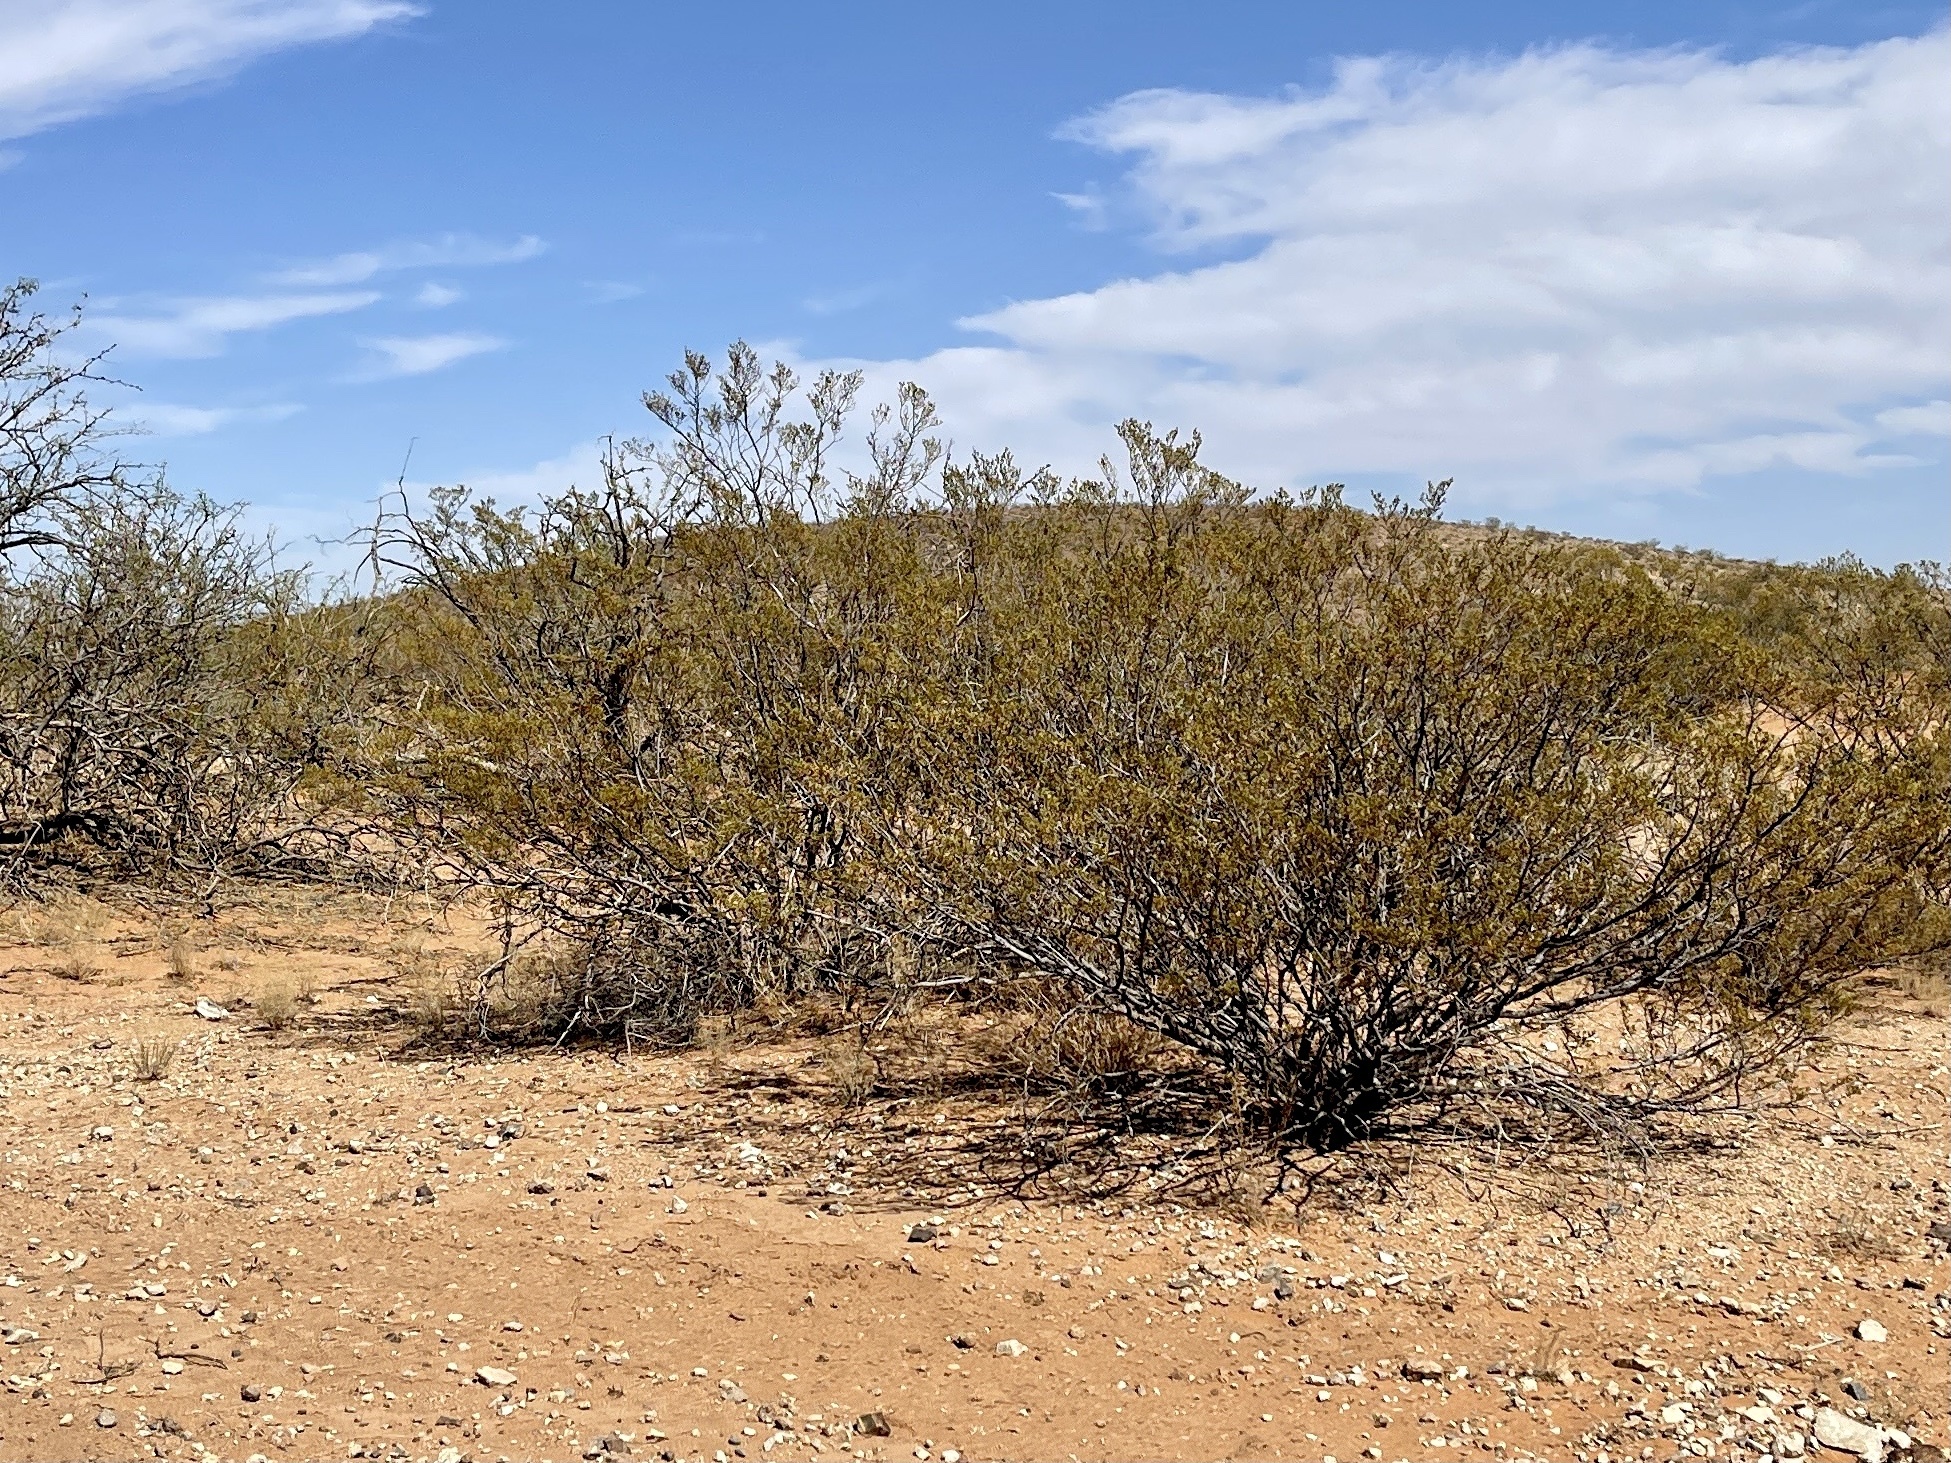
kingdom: Plantae
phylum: Tracheophyta
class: Magnoliopsida
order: Zygophyllales
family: Zygophyllaceae
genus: Larrea
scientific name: Larrea tridentata
